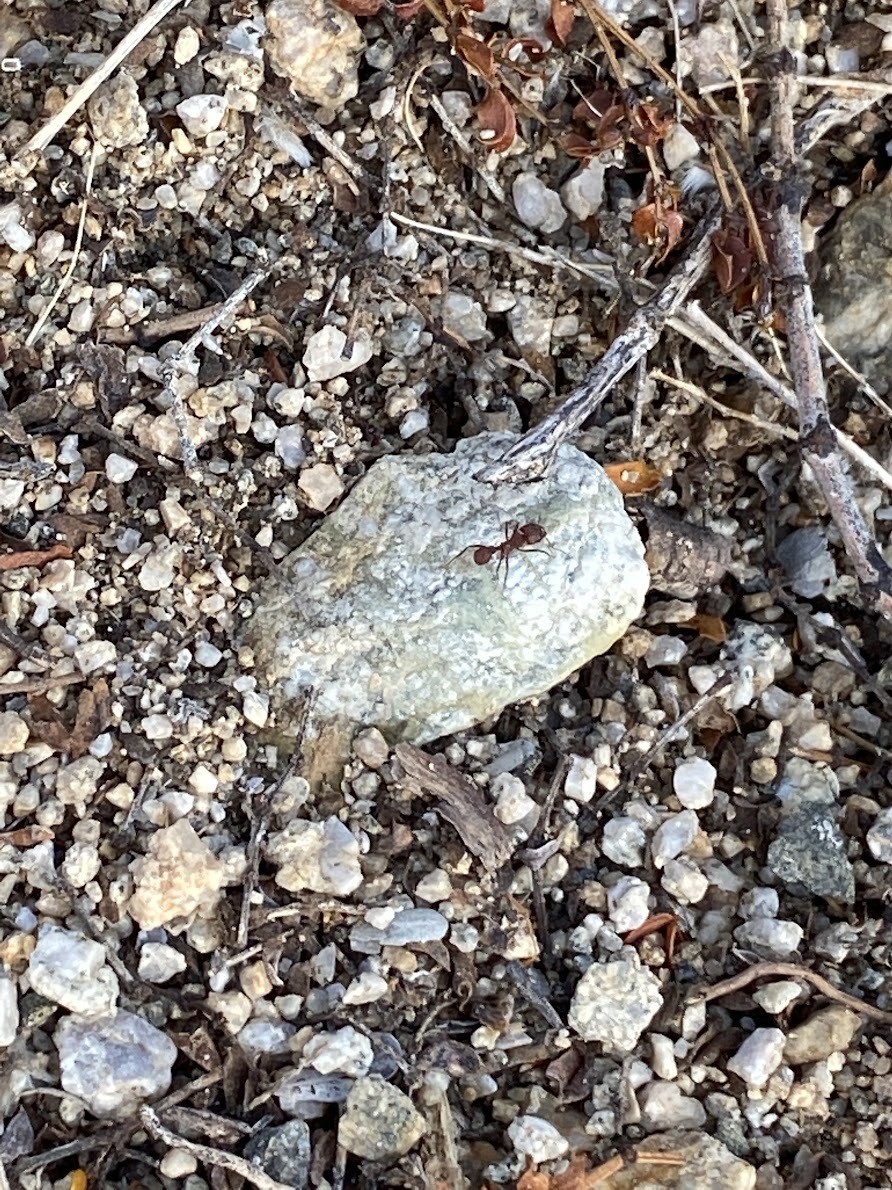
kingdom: Animalia
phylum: Arthropoda
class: Insecta
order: Hymenoptera
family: Formicidae
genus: Acromyrmex
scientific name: Acromyrmex versicolor
